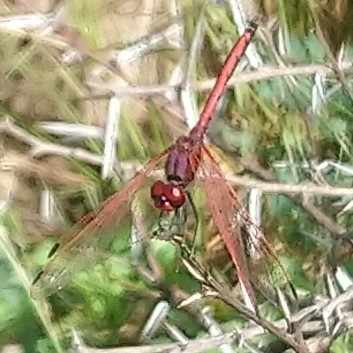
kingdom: Animalia
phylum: Arthropoda
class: Insecta
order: Odonata
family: Libellulidae
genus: Trithemis
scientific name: Trithemis arteriosa
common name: Red-veined dropwing
